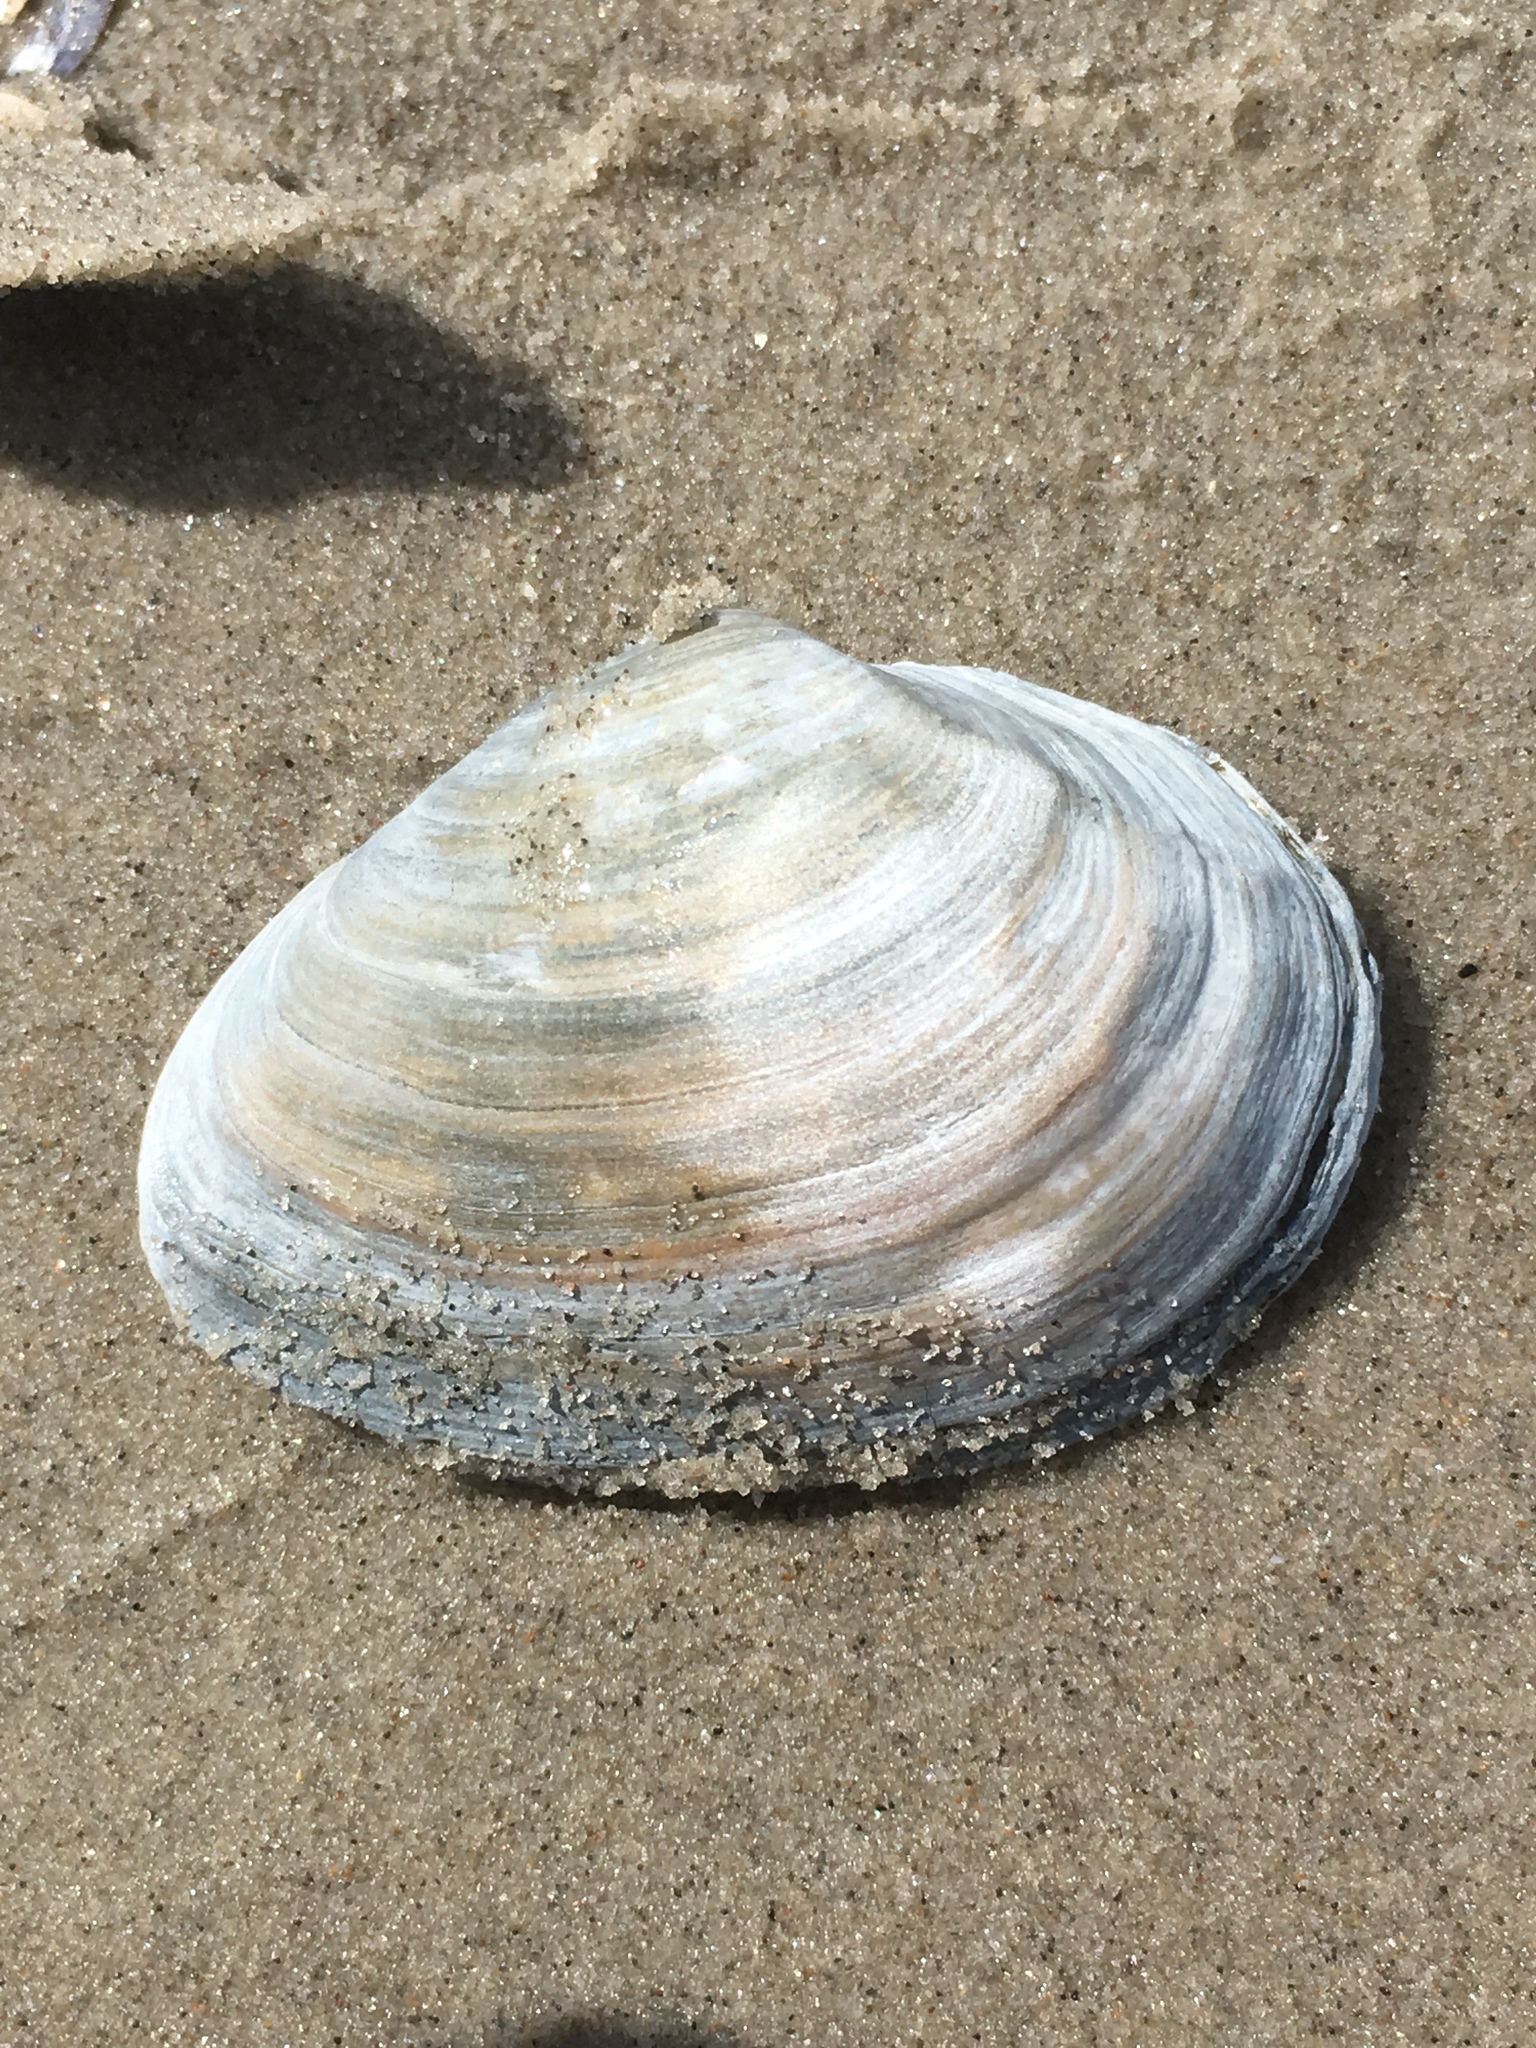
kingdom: Animalia
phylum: Mollusca
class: Bivalvia
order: Myida
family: Myidae
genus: Mya
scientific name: Mya arenaria
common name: Soft-shelled clam
